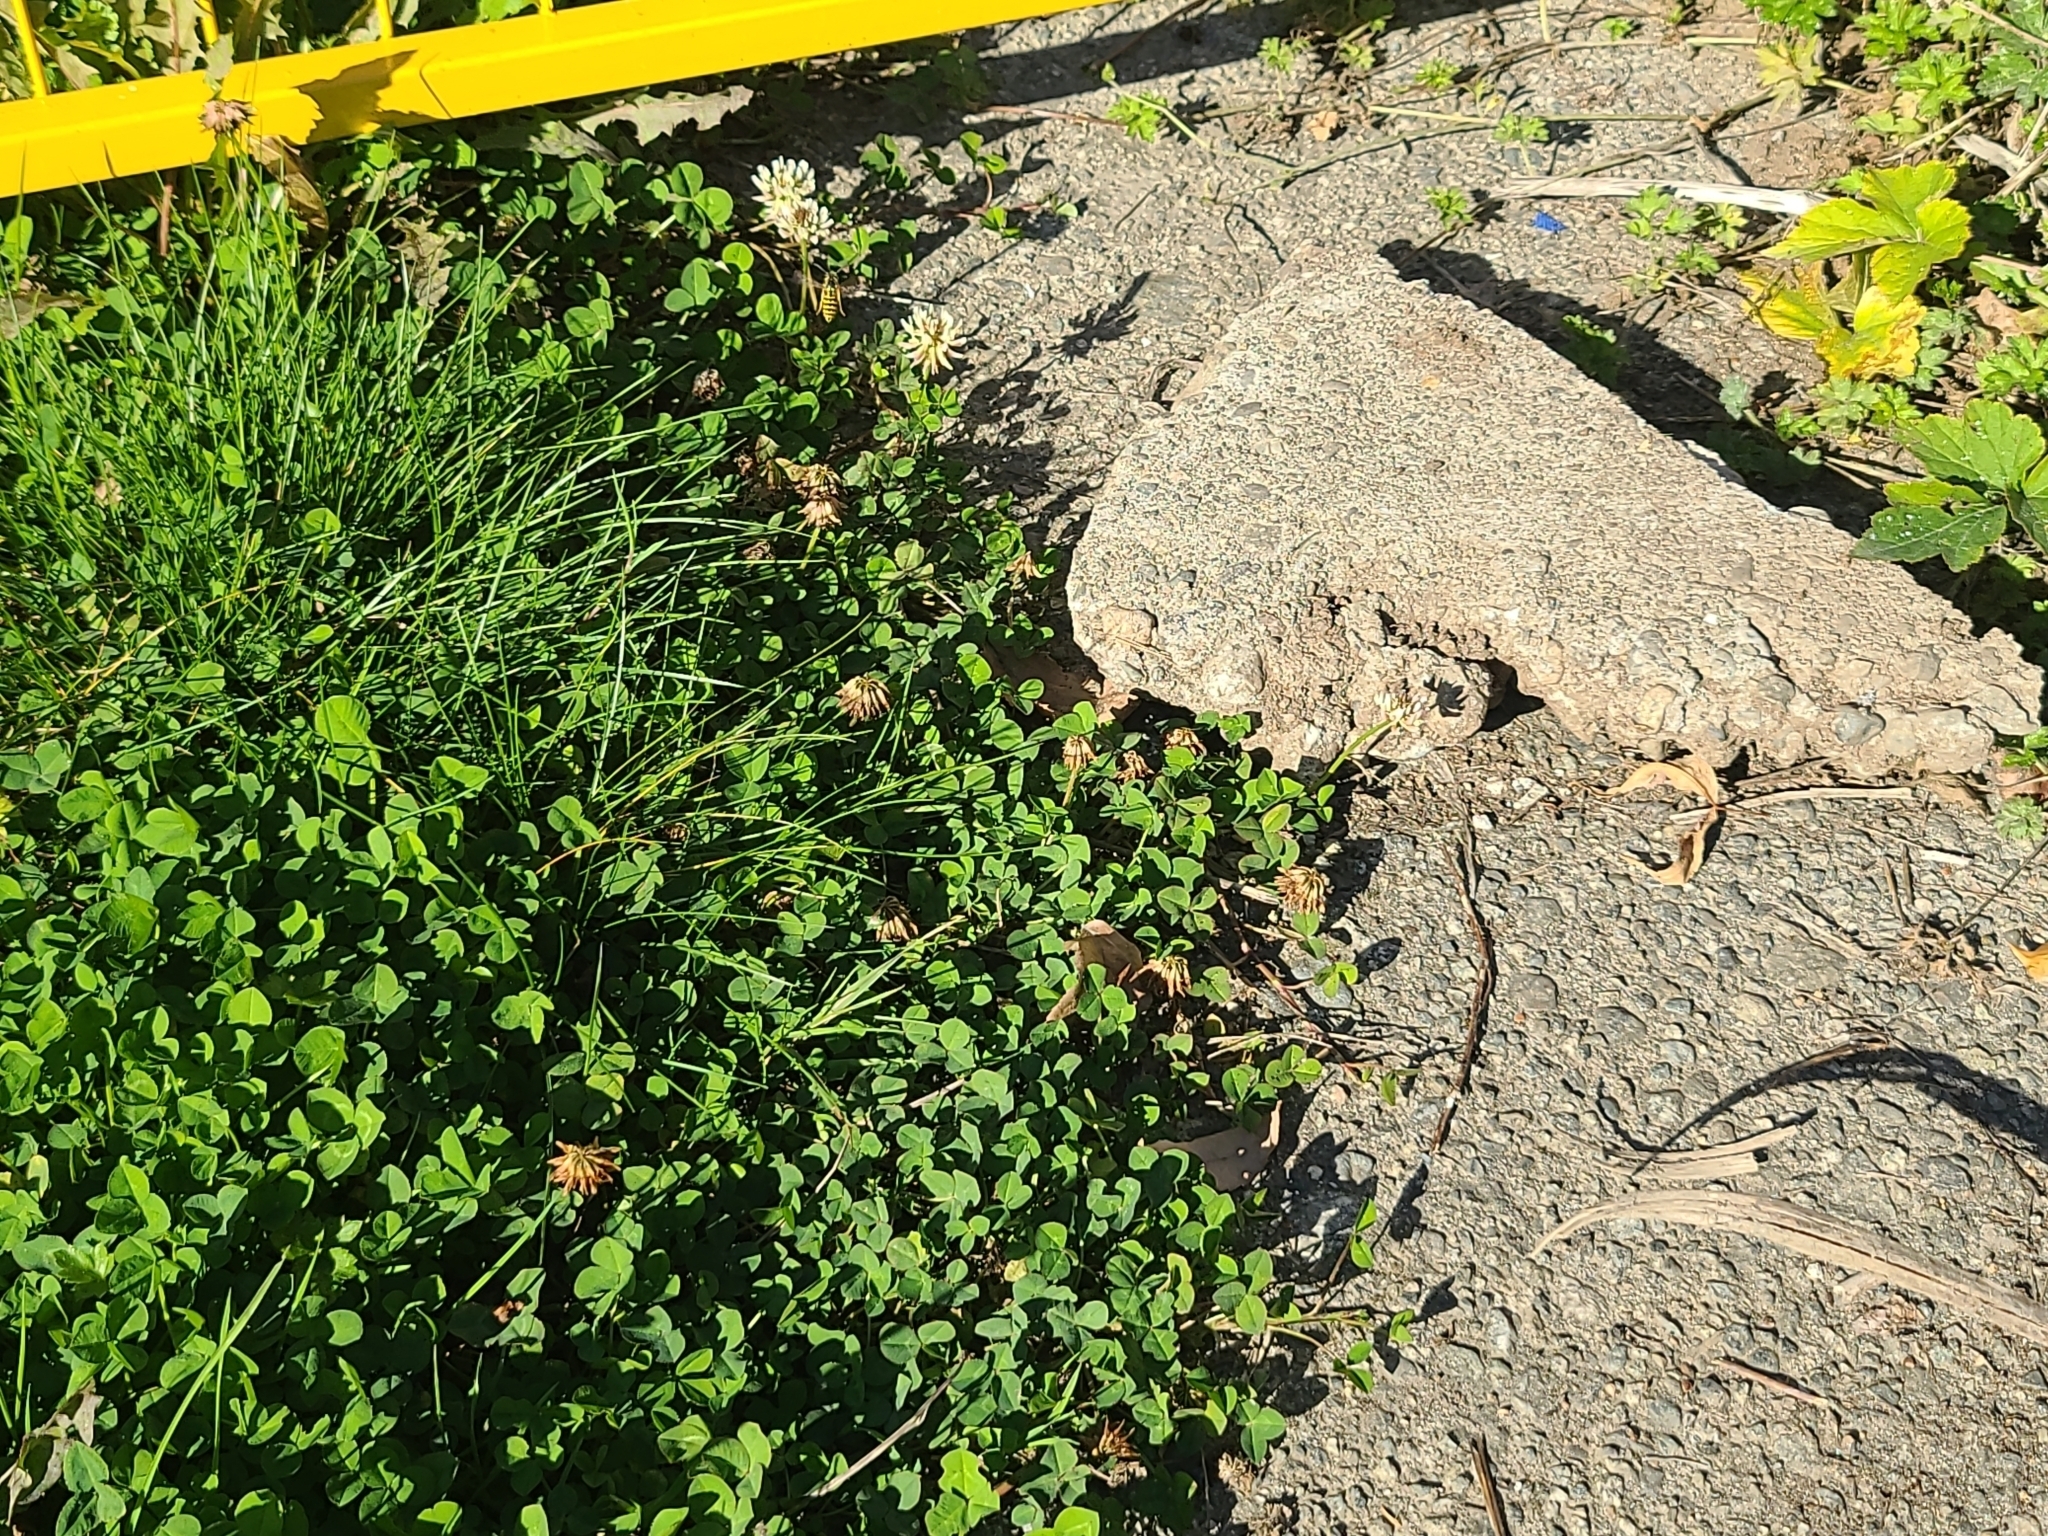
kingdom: Animalia
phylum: Arthropoda
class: Insecta
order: Hymenoptera
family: Vespidae
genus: Vespula
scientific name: Vespula pensylvanica
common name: Western yellowjacket
